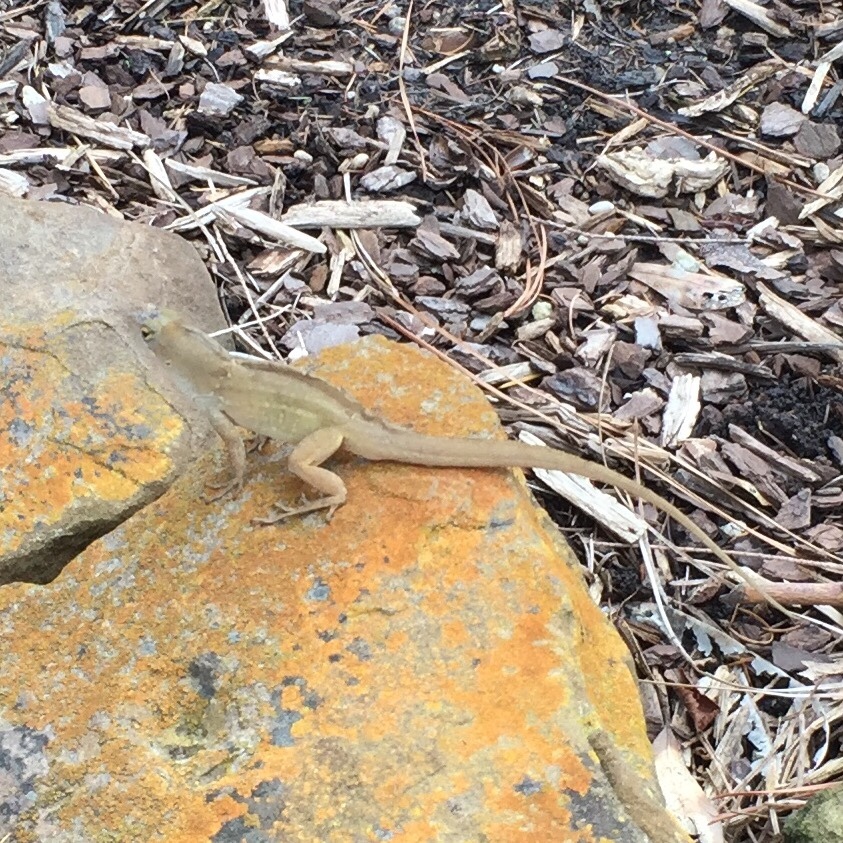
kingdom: Animalia
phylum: Chordata
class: Squamata
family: Dactyloidae
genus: Anolis
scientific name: Anolis sagrei
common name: Brown anole
